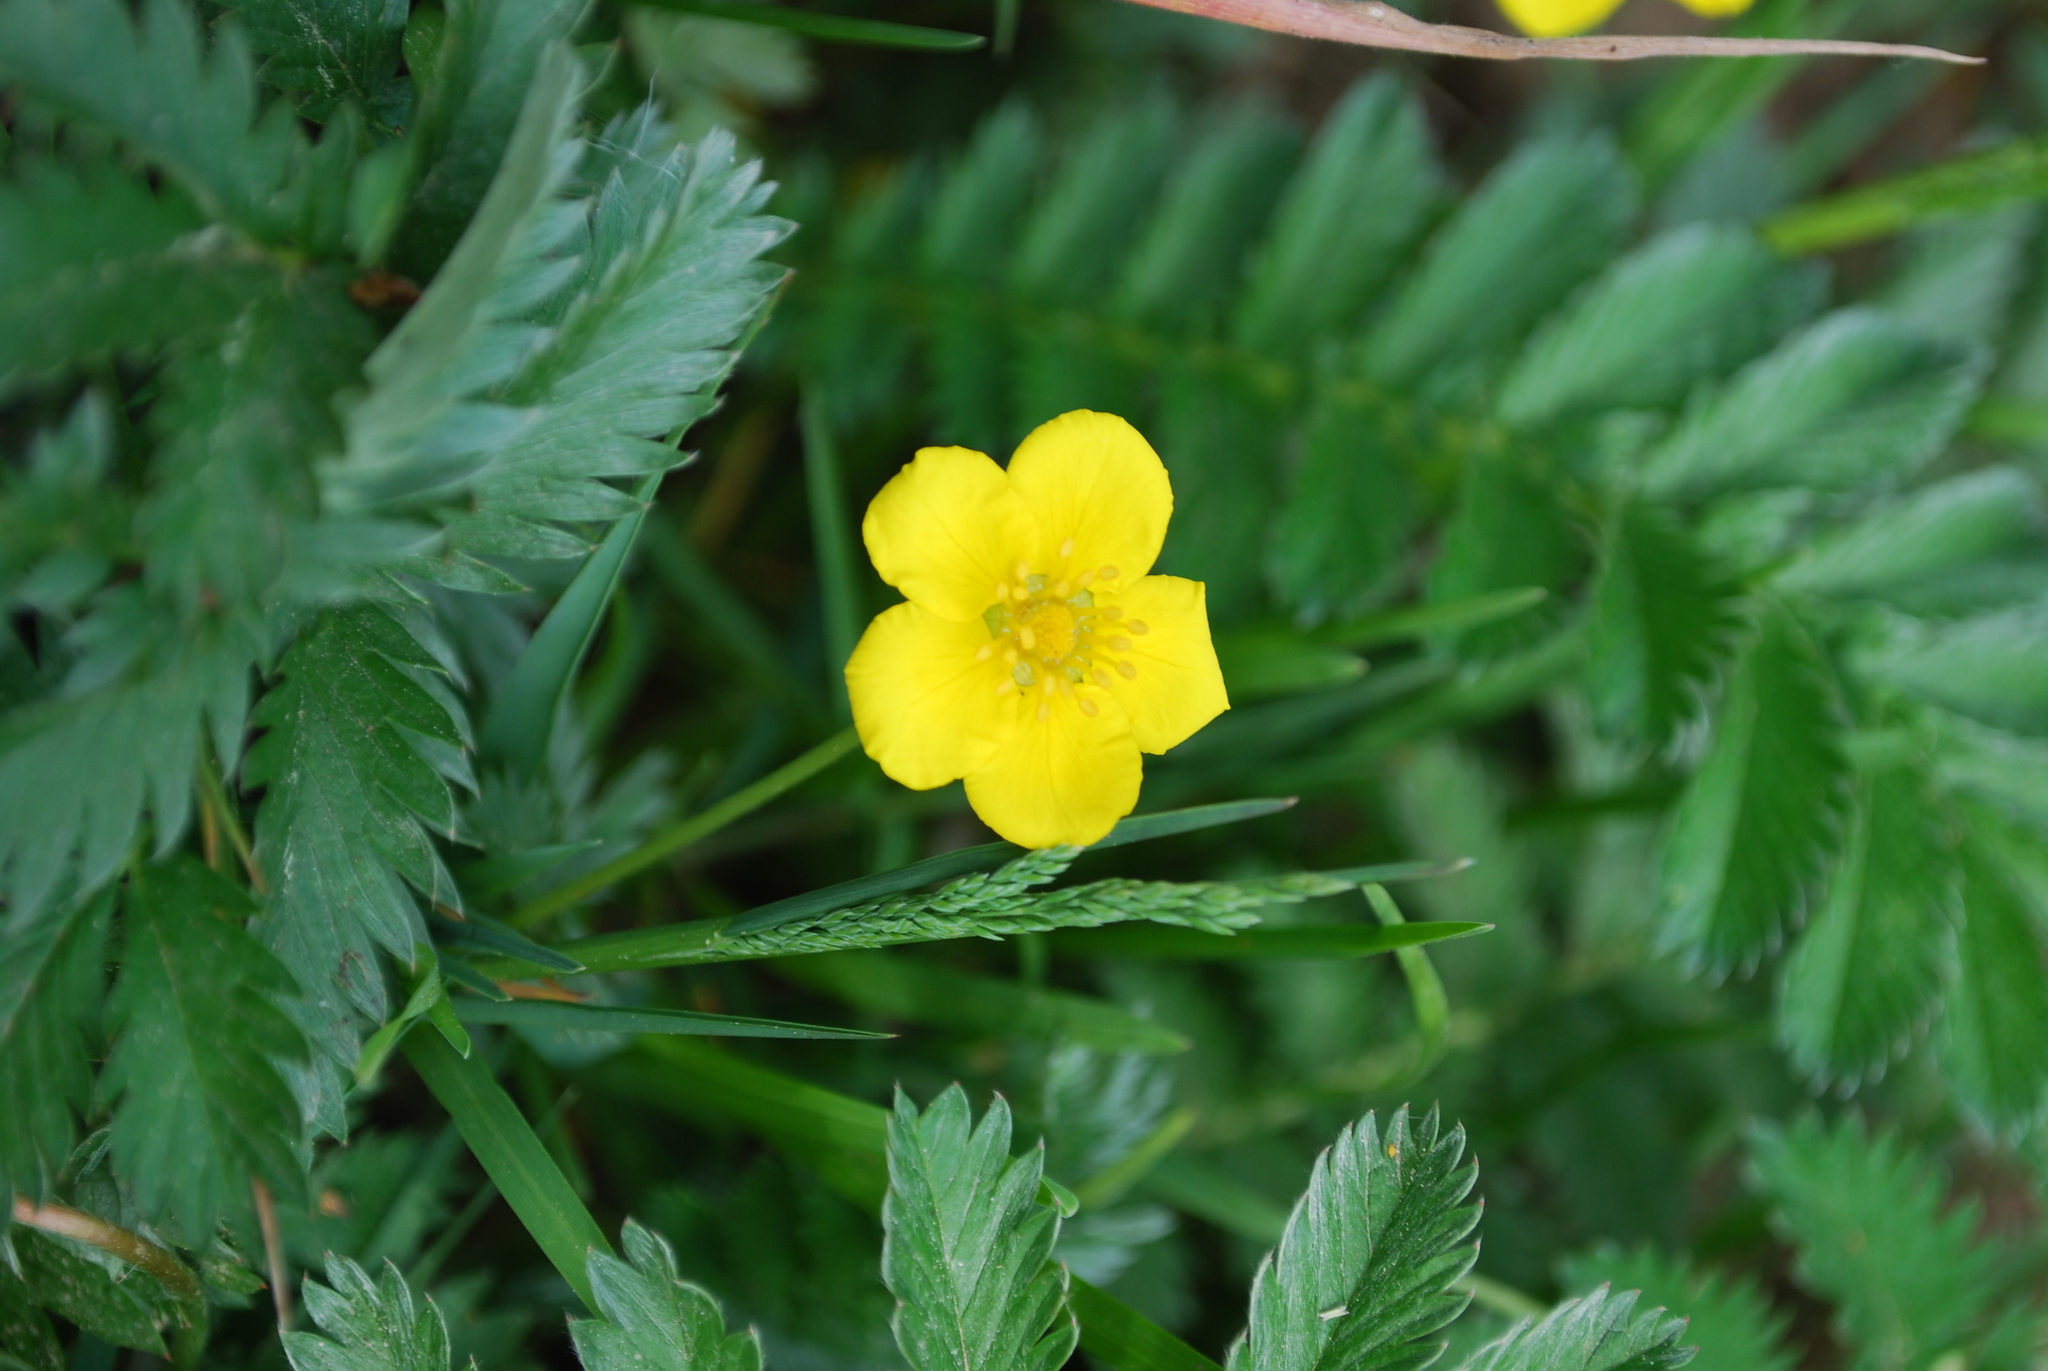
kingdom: Plantae
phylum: Tracheophyta
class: Magnoliopsida
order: Rosales
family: Rosaceae
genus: Argentina
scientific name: Argentina anserina
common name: Common silverweed
